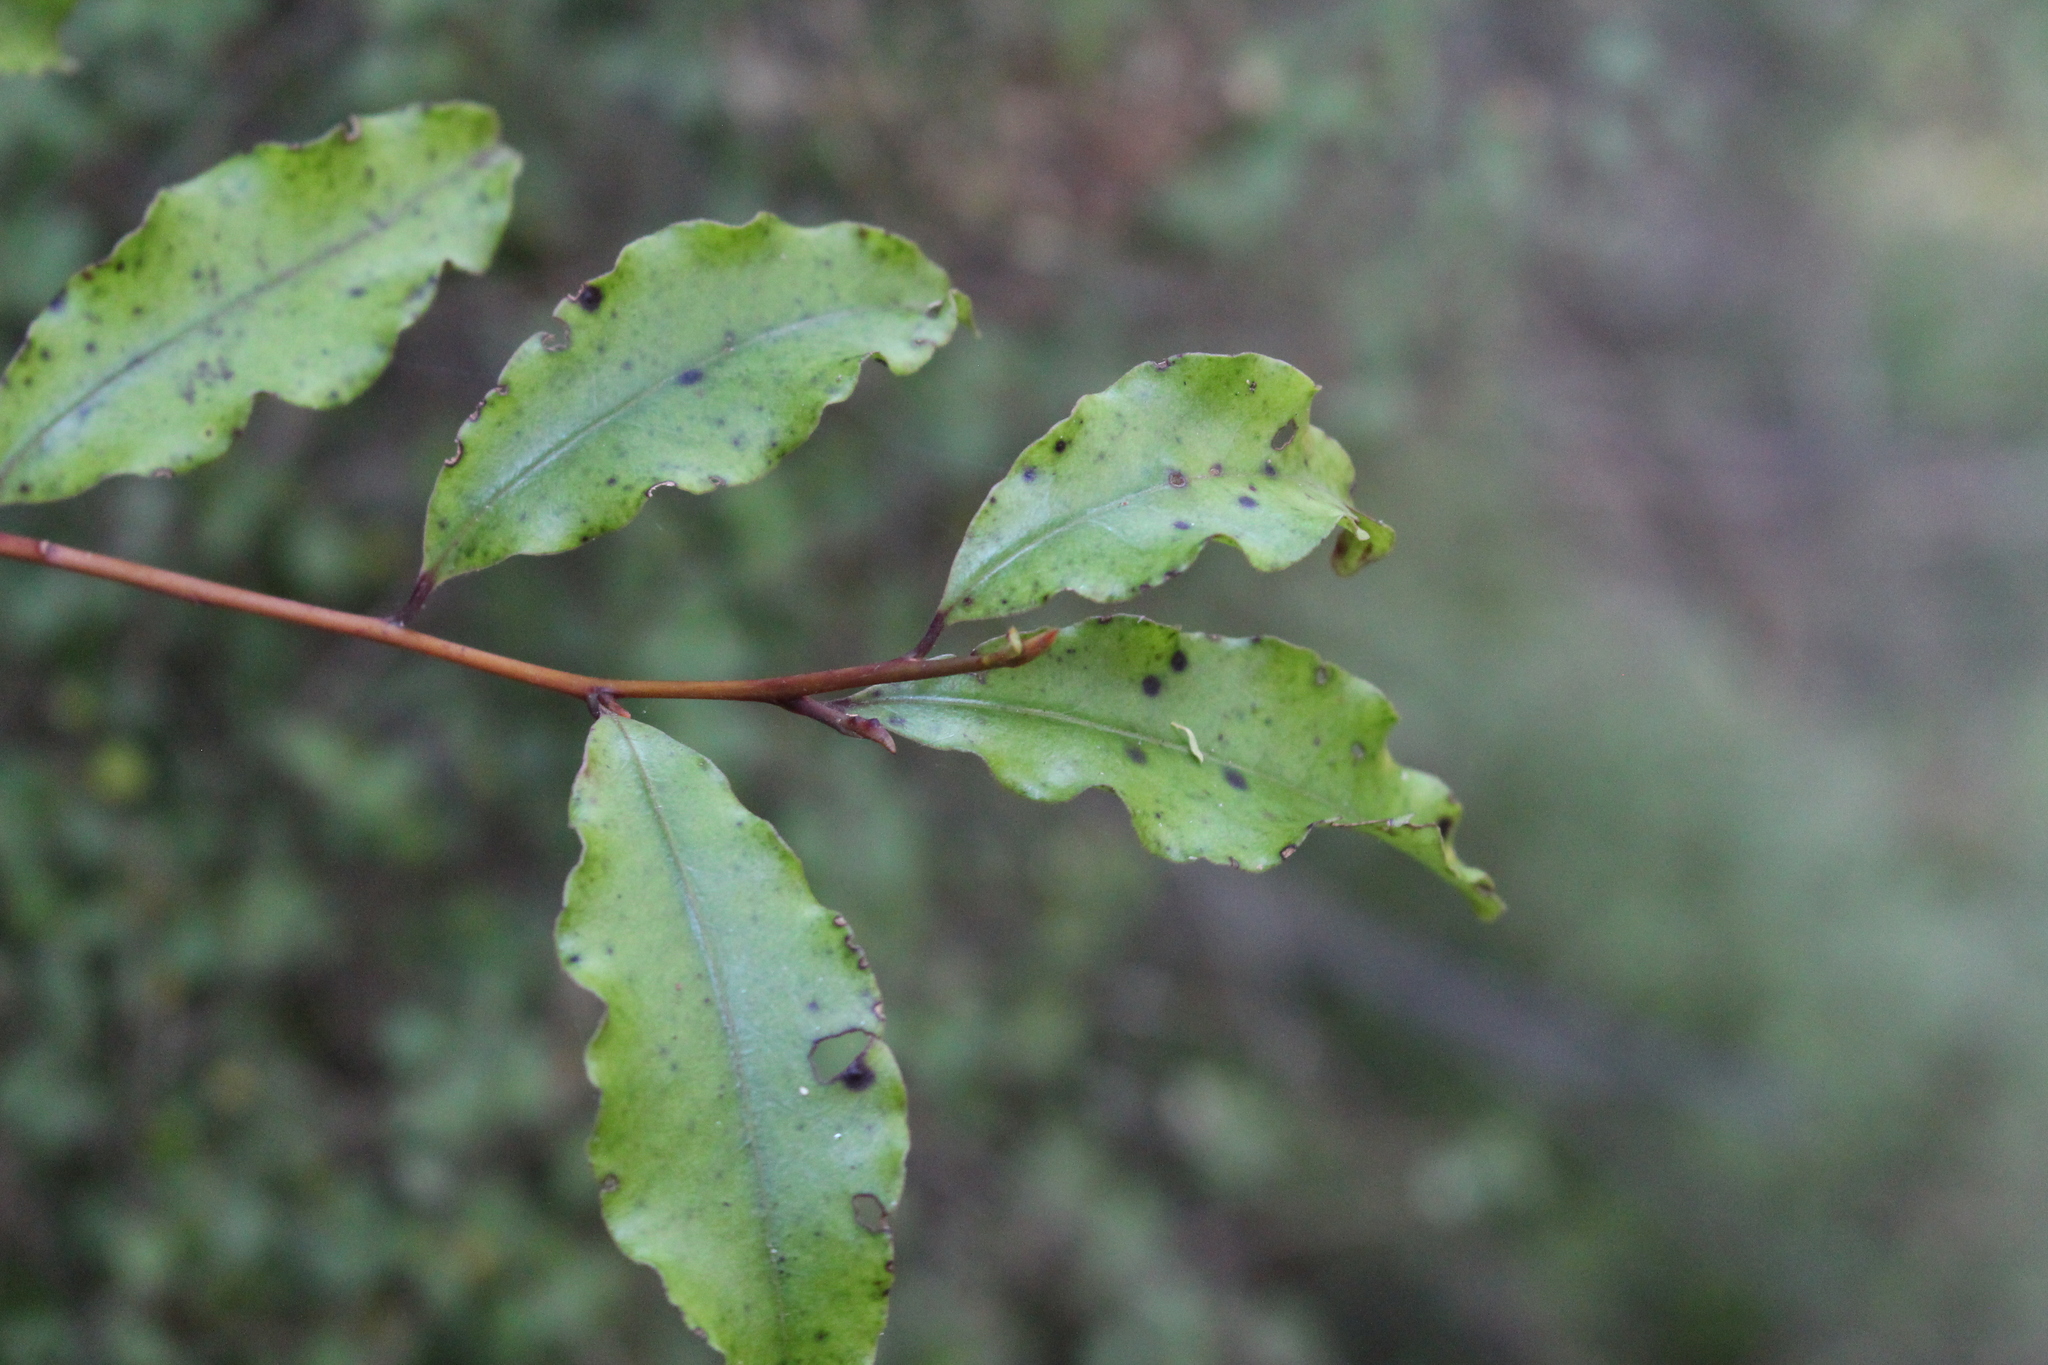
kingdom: Plantae
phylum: Tracheophyta
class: Magnoliopsida
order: Ericales
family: Primulaceae
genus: Myrsine
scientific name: Myrsine australis
